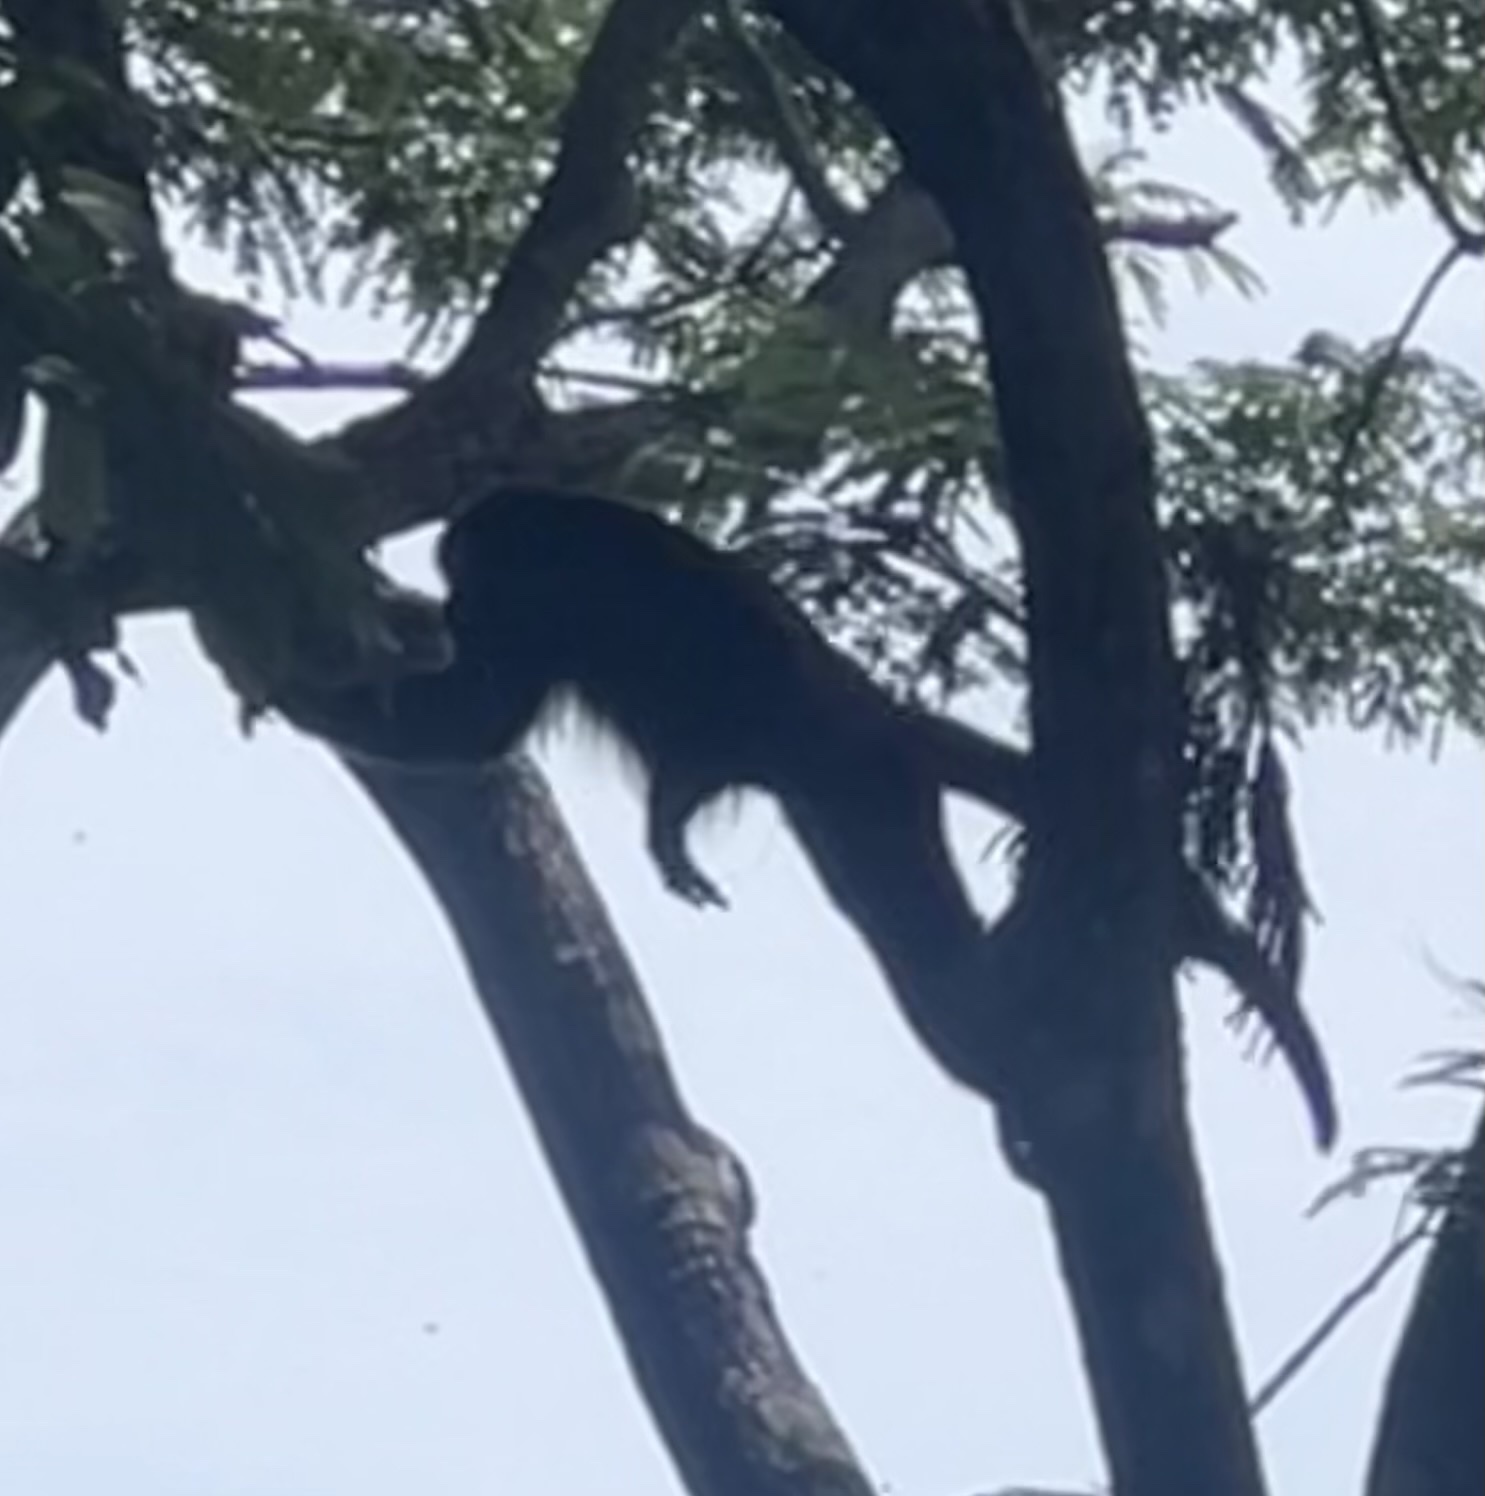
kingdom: Animalia
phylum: Chordata
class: Mammalia
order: Primates
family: Atelidae
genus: Alouatta
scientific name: Alouatta palliata
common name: Mantled howler
